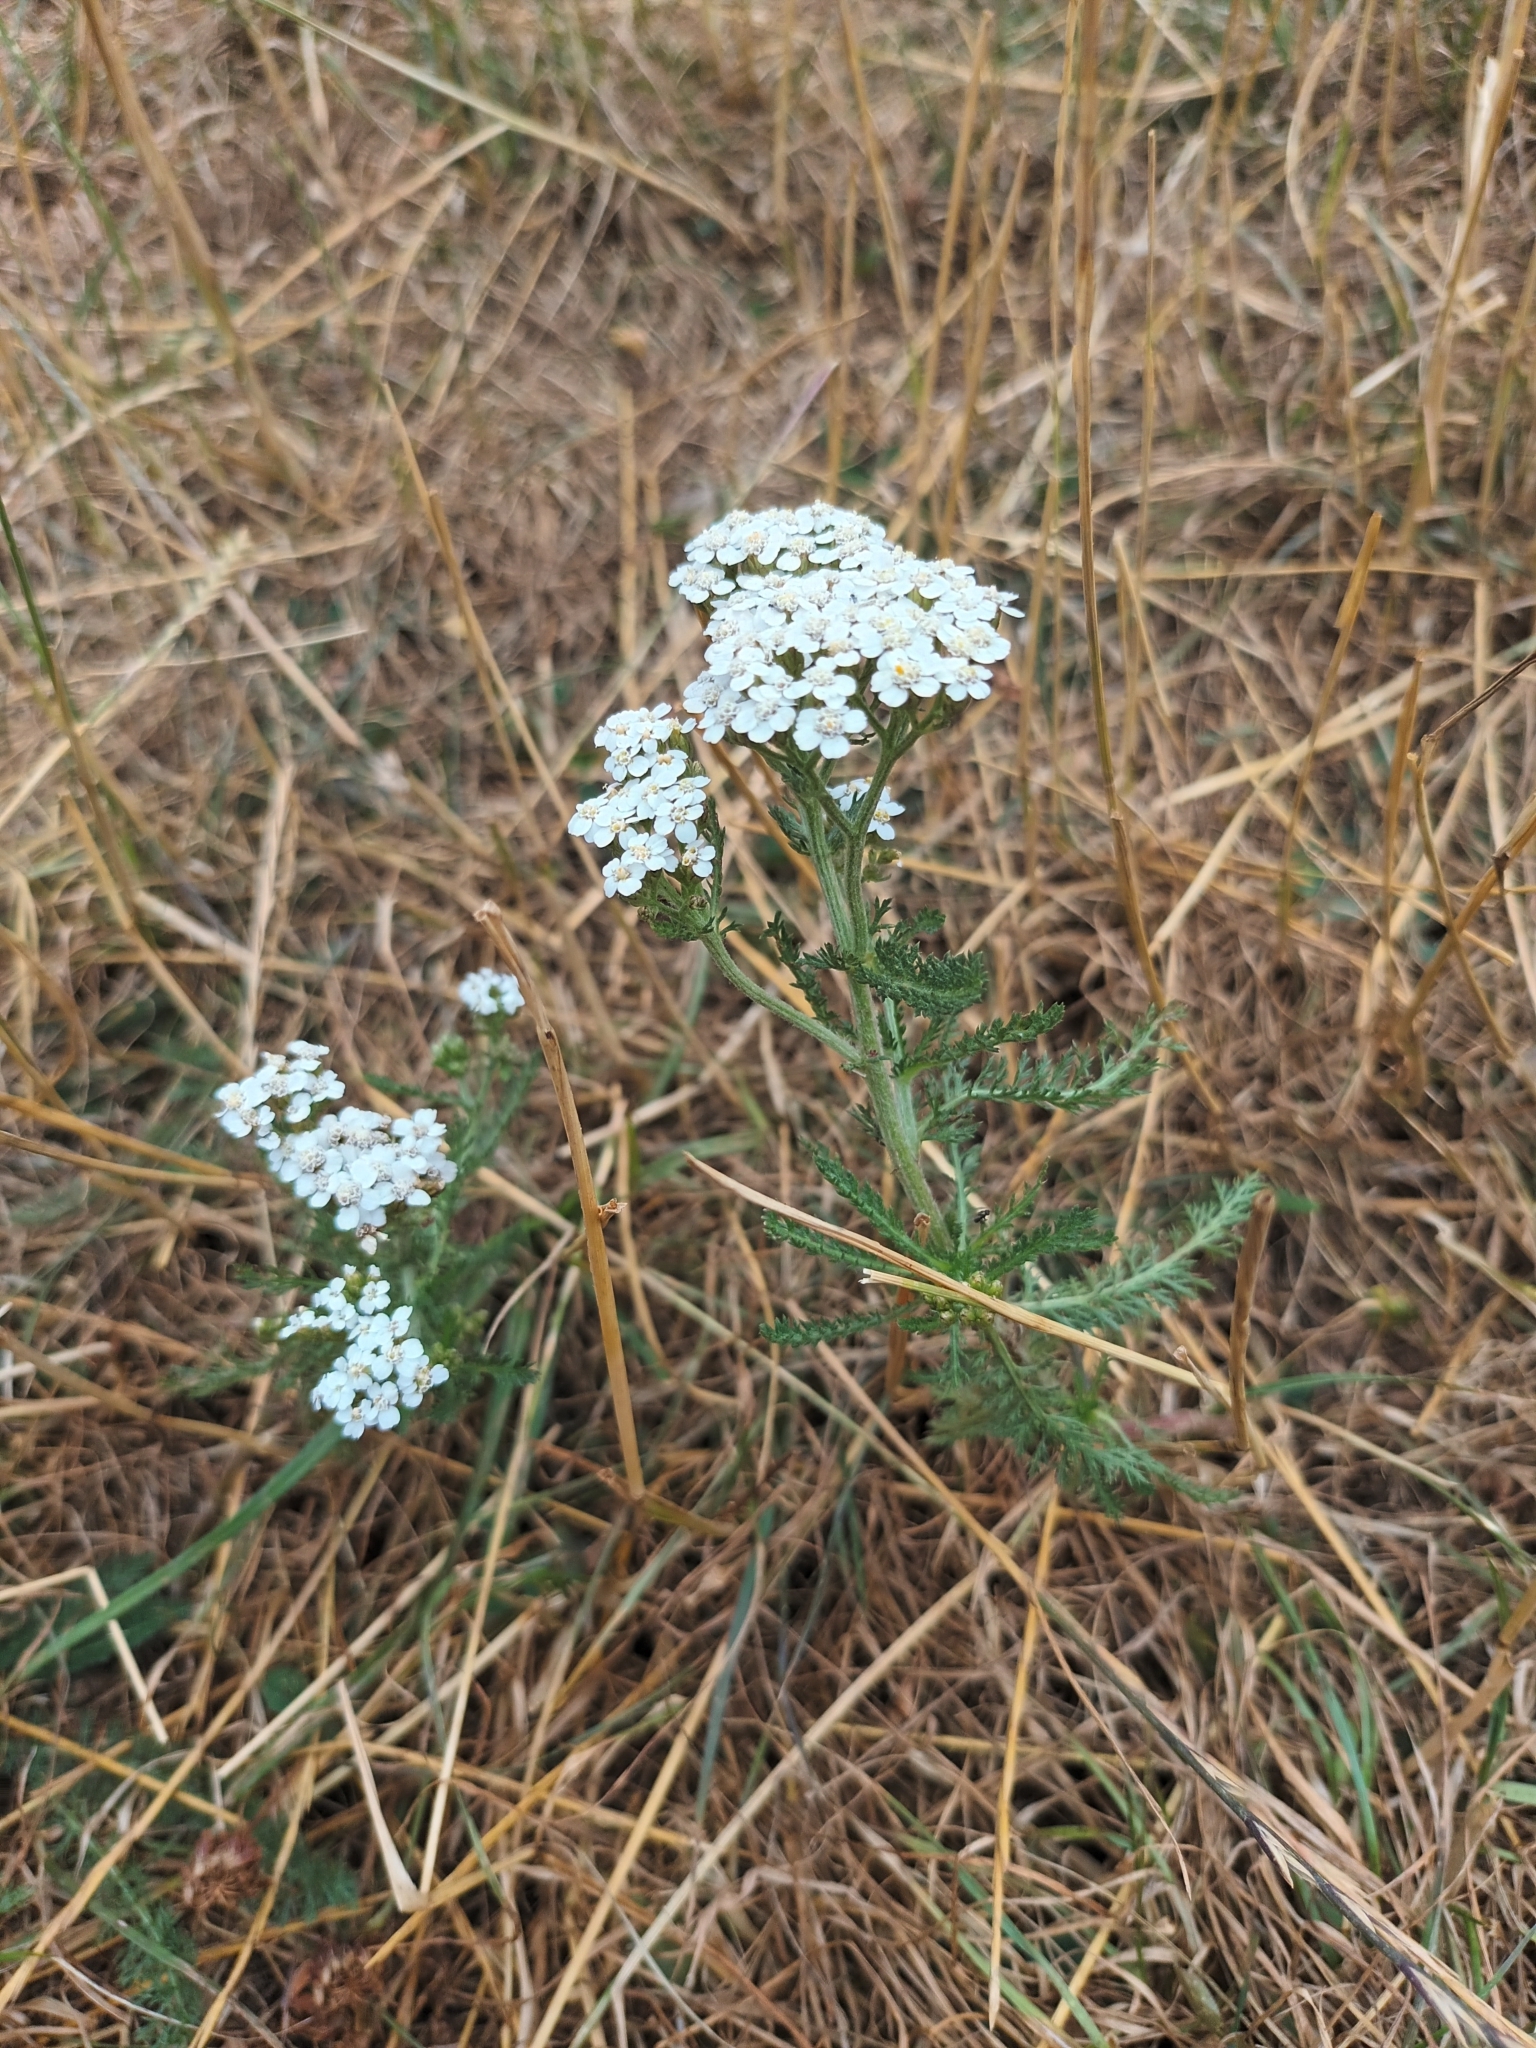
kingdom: Plantae
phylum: Tracheophyta
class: Magnoliopsida
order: Asterales
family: Asteraceae
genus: Achillea
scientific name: Achillea millefolium
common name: Yarrow
